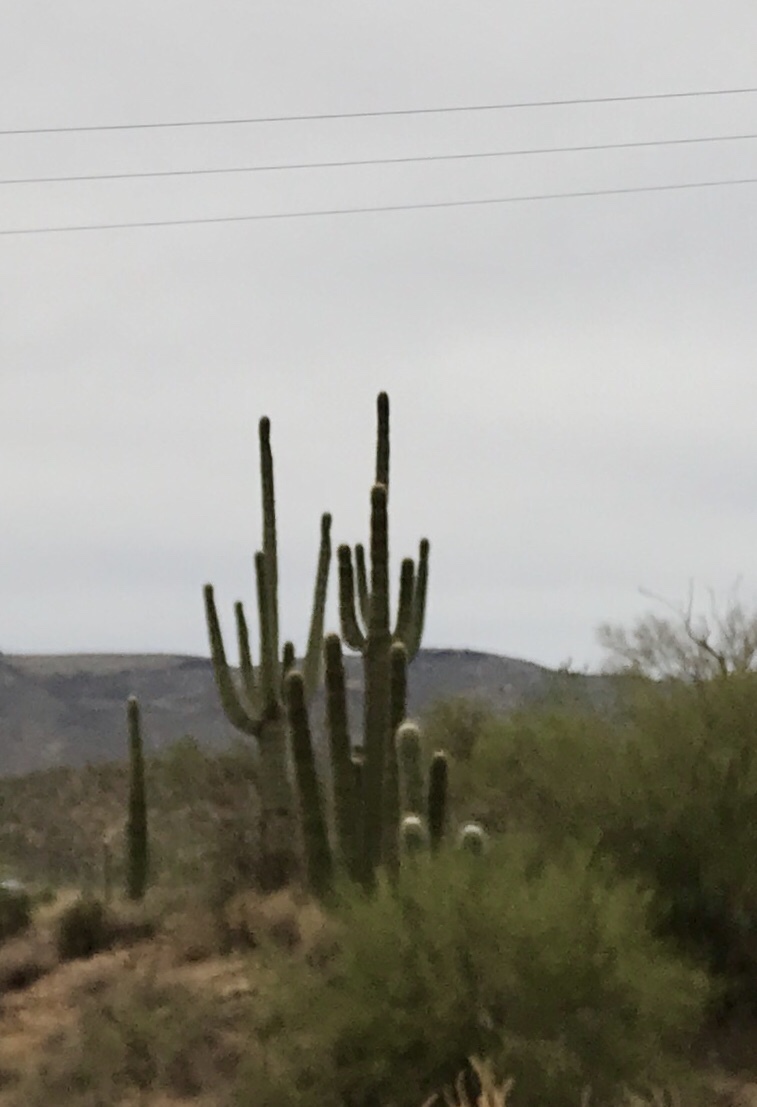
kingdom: Plantae
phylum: Tracheophyta
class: Magnoliopsida
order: Caryophyllales
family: Cactaceae
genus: Carnegiea
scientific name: Carnegiea gigantea
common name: Saguaro
